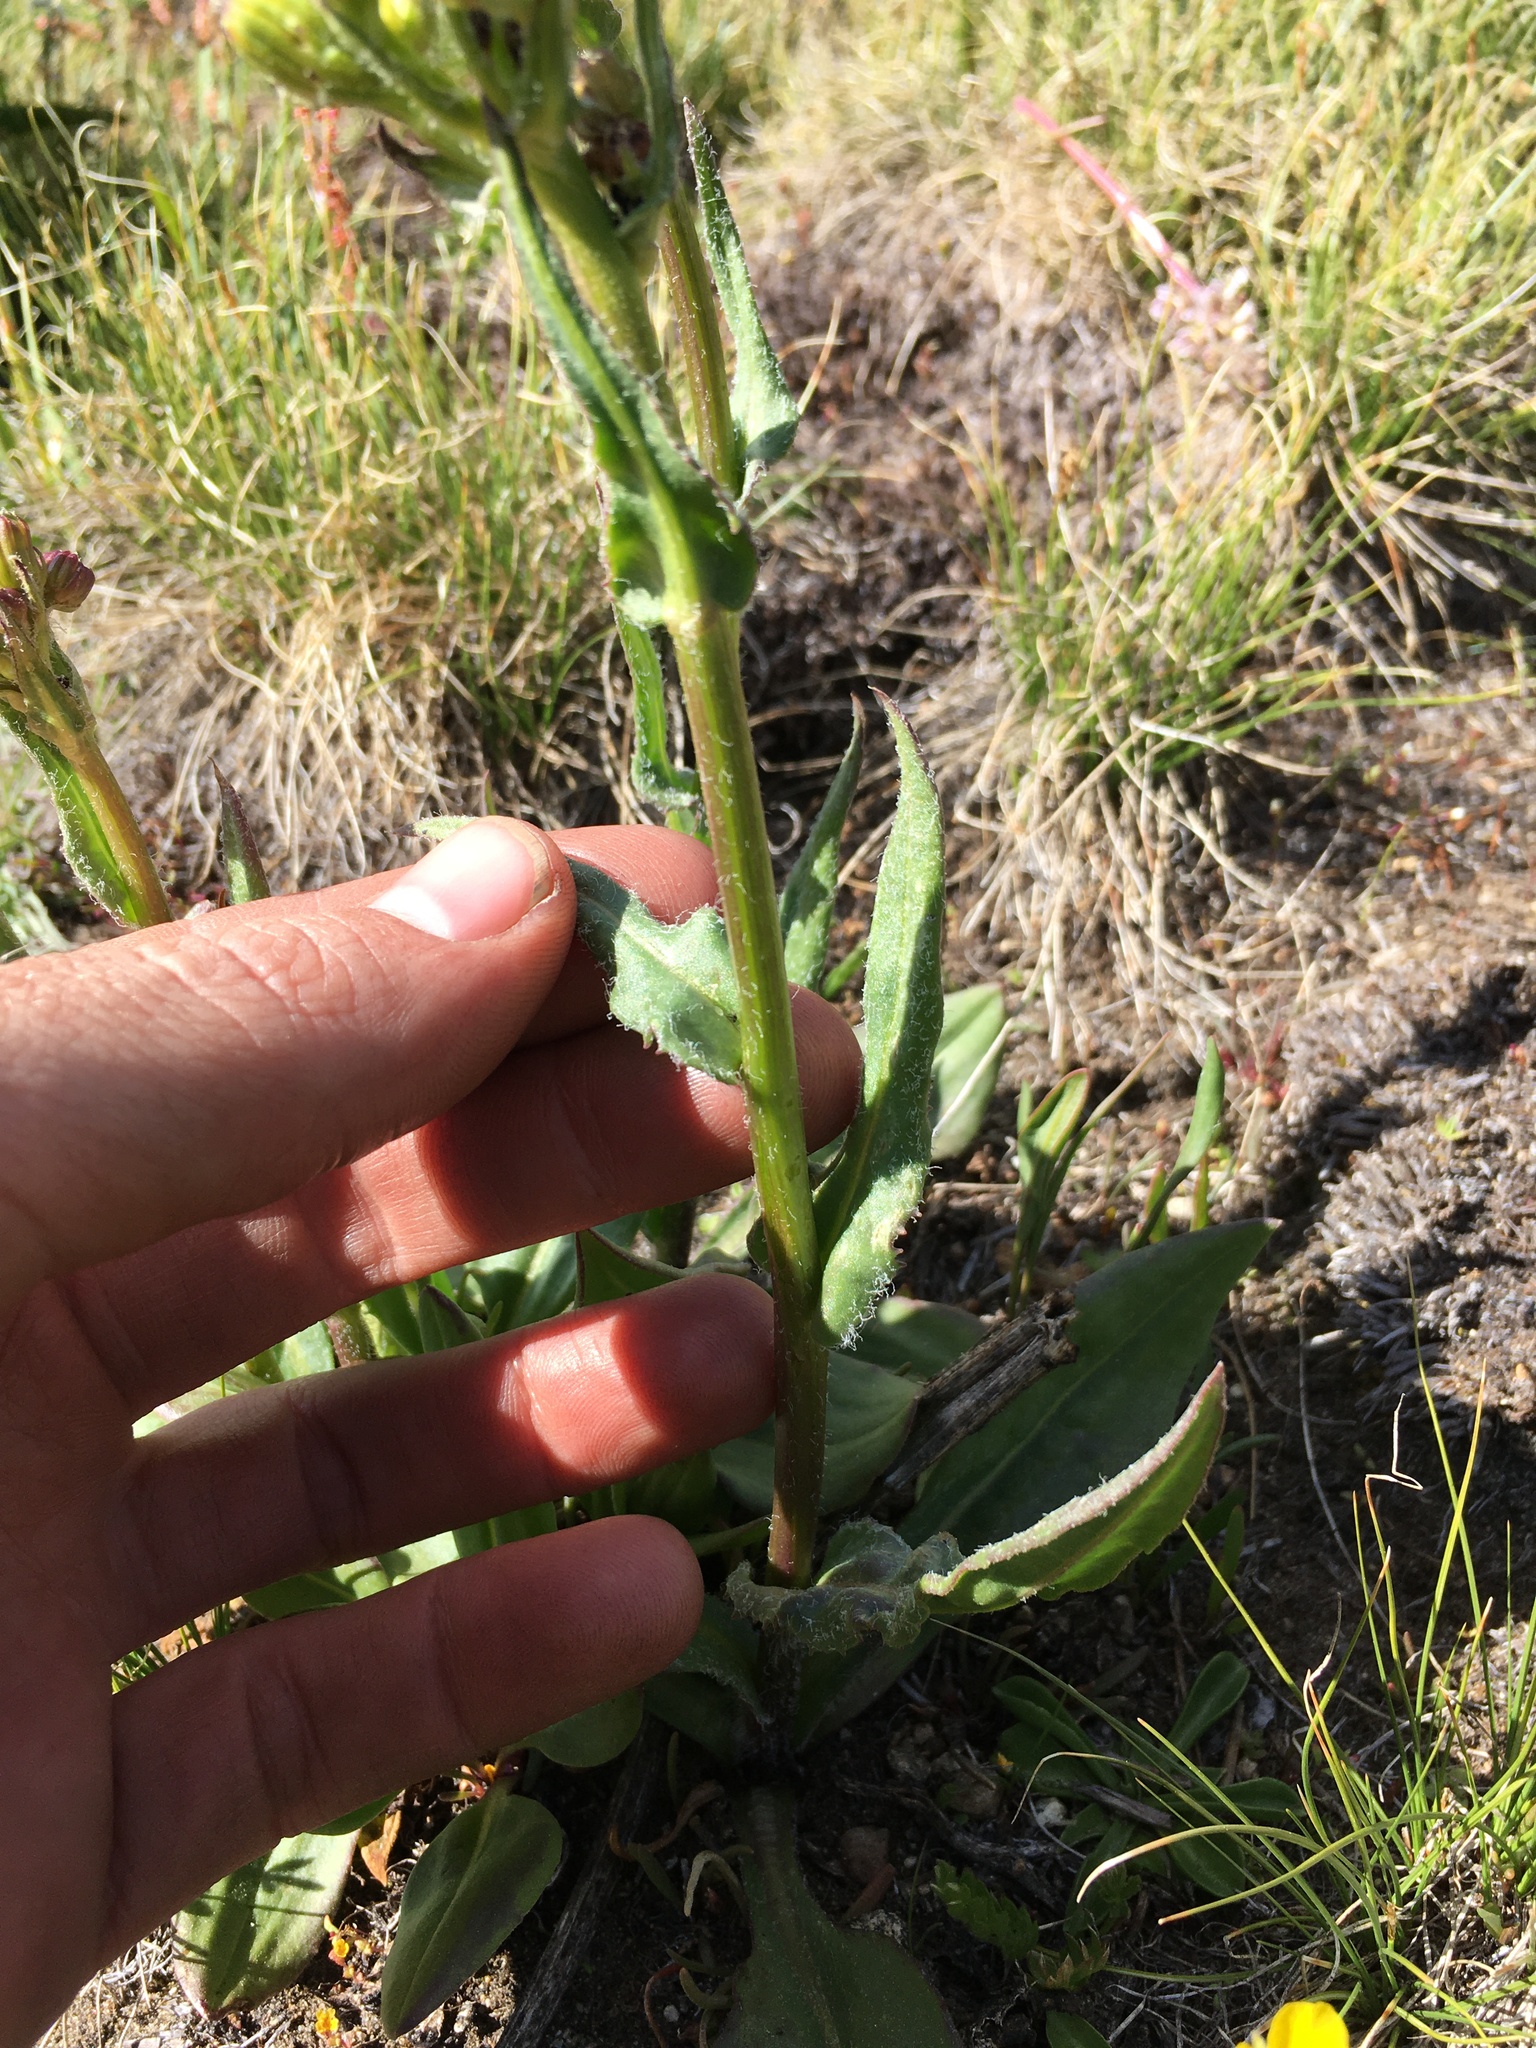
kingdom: Plantae
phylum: Tracheophyta
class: Magnoliopsida
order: Asterales
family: Asteraceae
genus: Senecio
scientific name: Senecio integerrimus
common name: Gaugeplant
